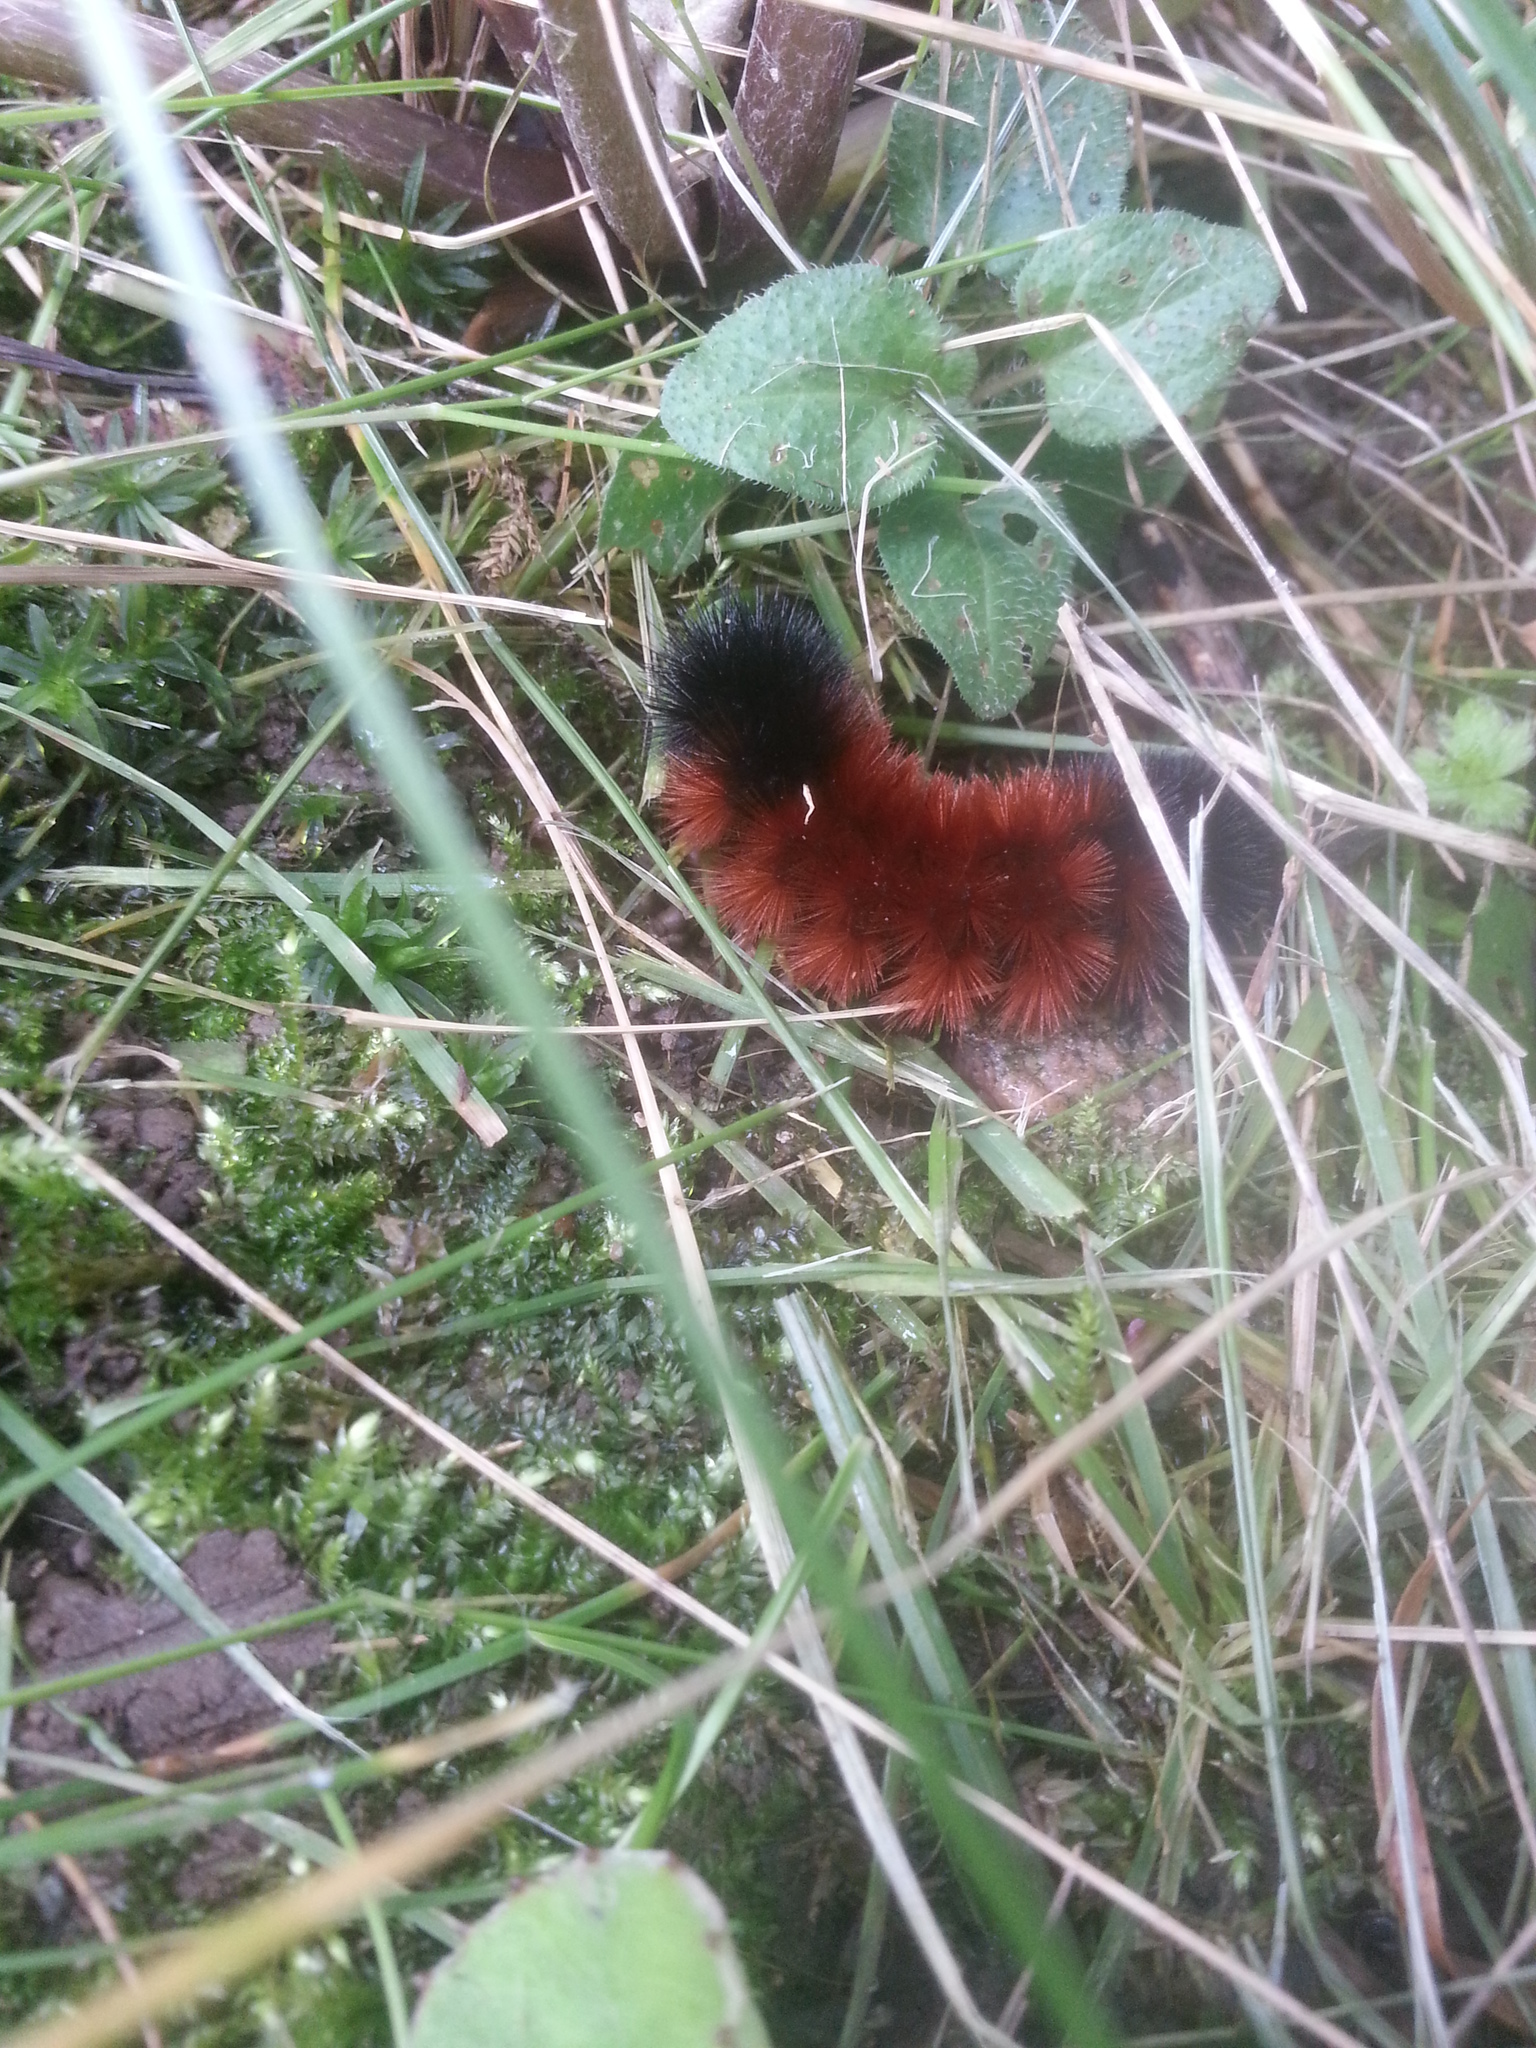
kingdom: Animalia
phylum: Arthropoda
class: Insecta
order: Lepidoptera
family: Erebidae
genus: Pyrrharctia
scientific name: Pyrrharctia isabella
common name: Isabella tiger moth
